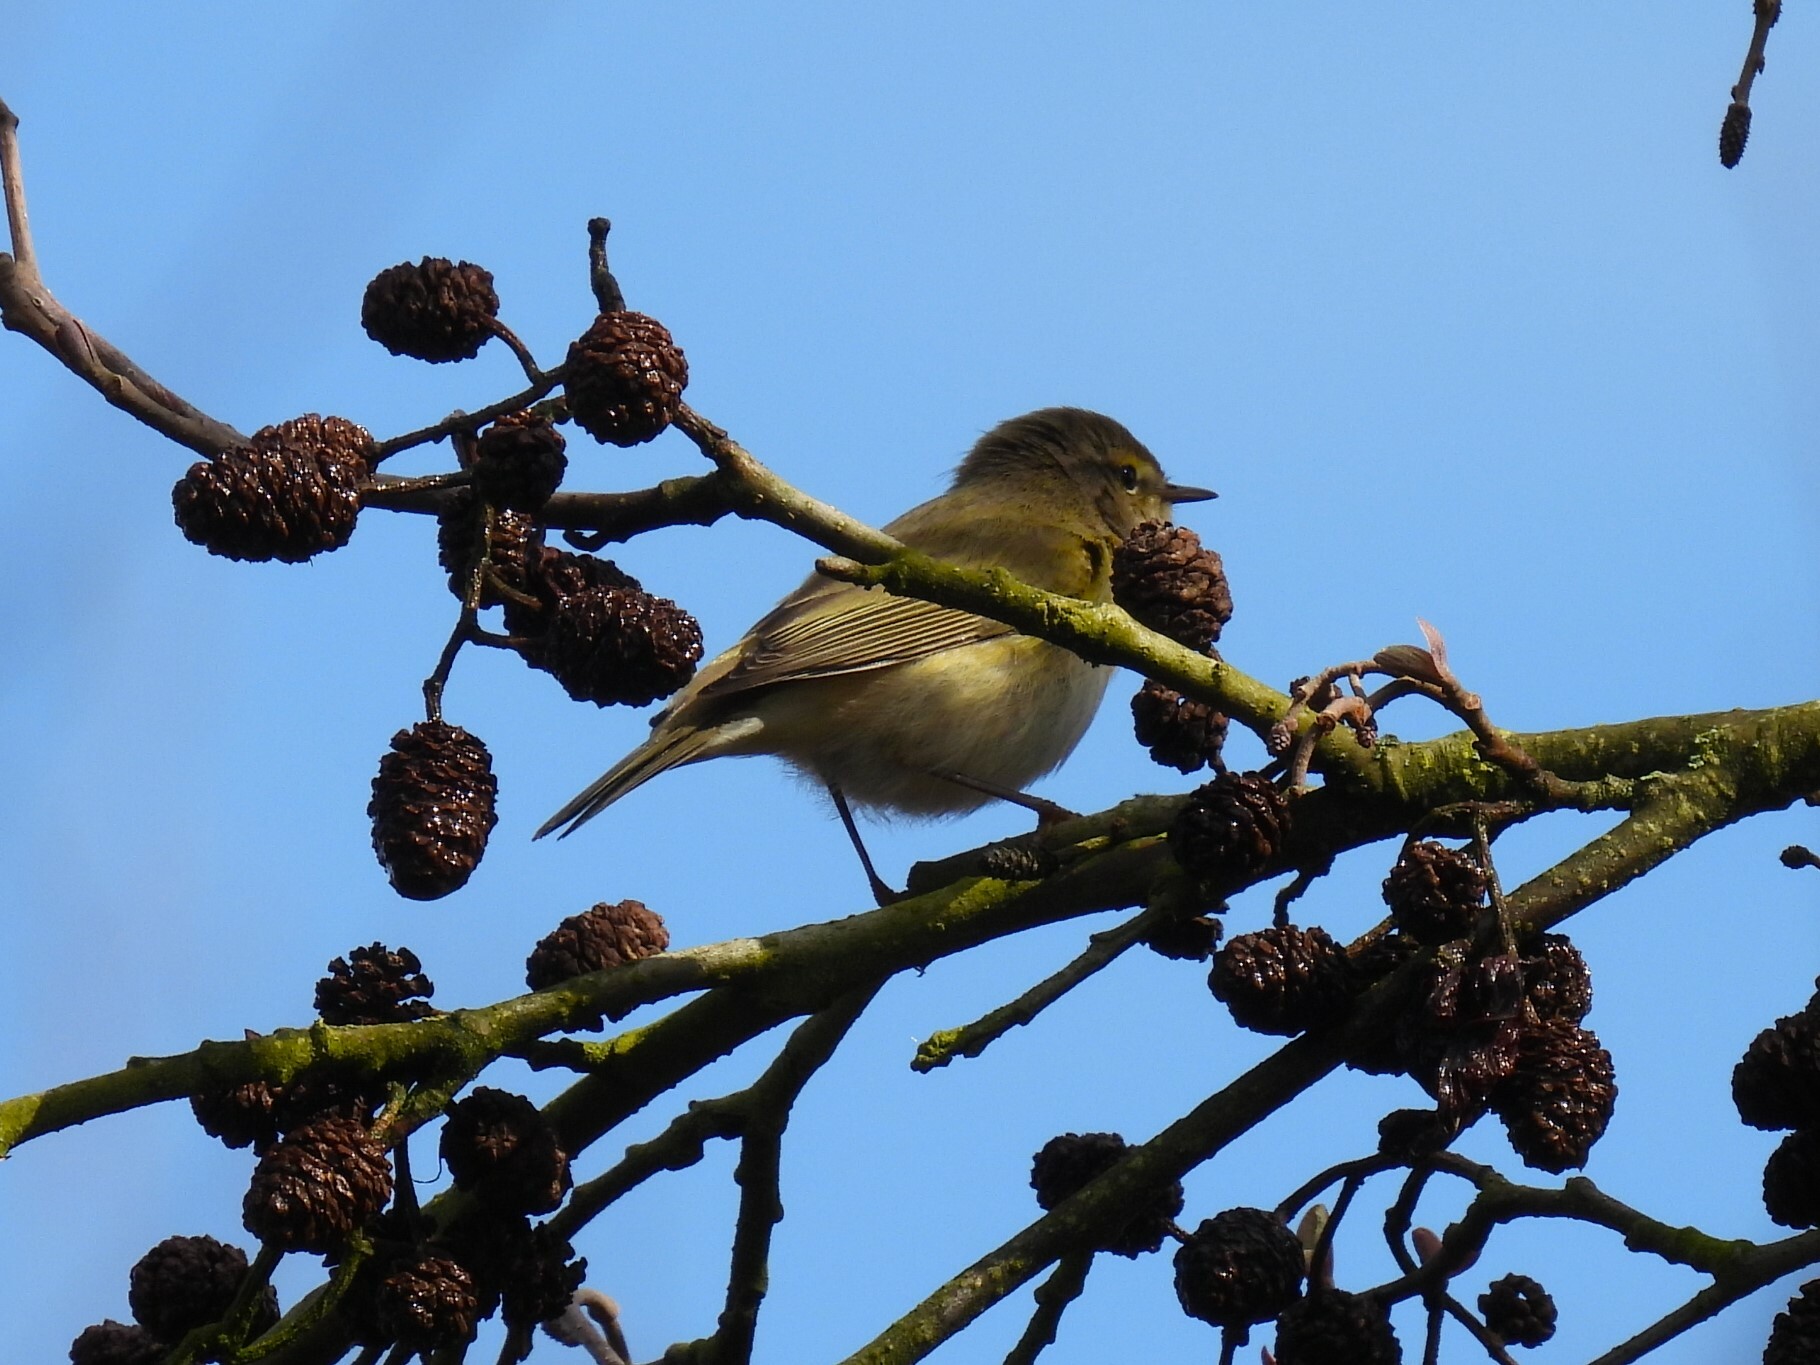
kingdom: Animalia
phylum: Chordata
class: Aves
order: Passeriformes
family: Phylloscopidae
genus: Phylloscopus
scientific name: Phylloscopus trochilus
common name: Willow warbler
